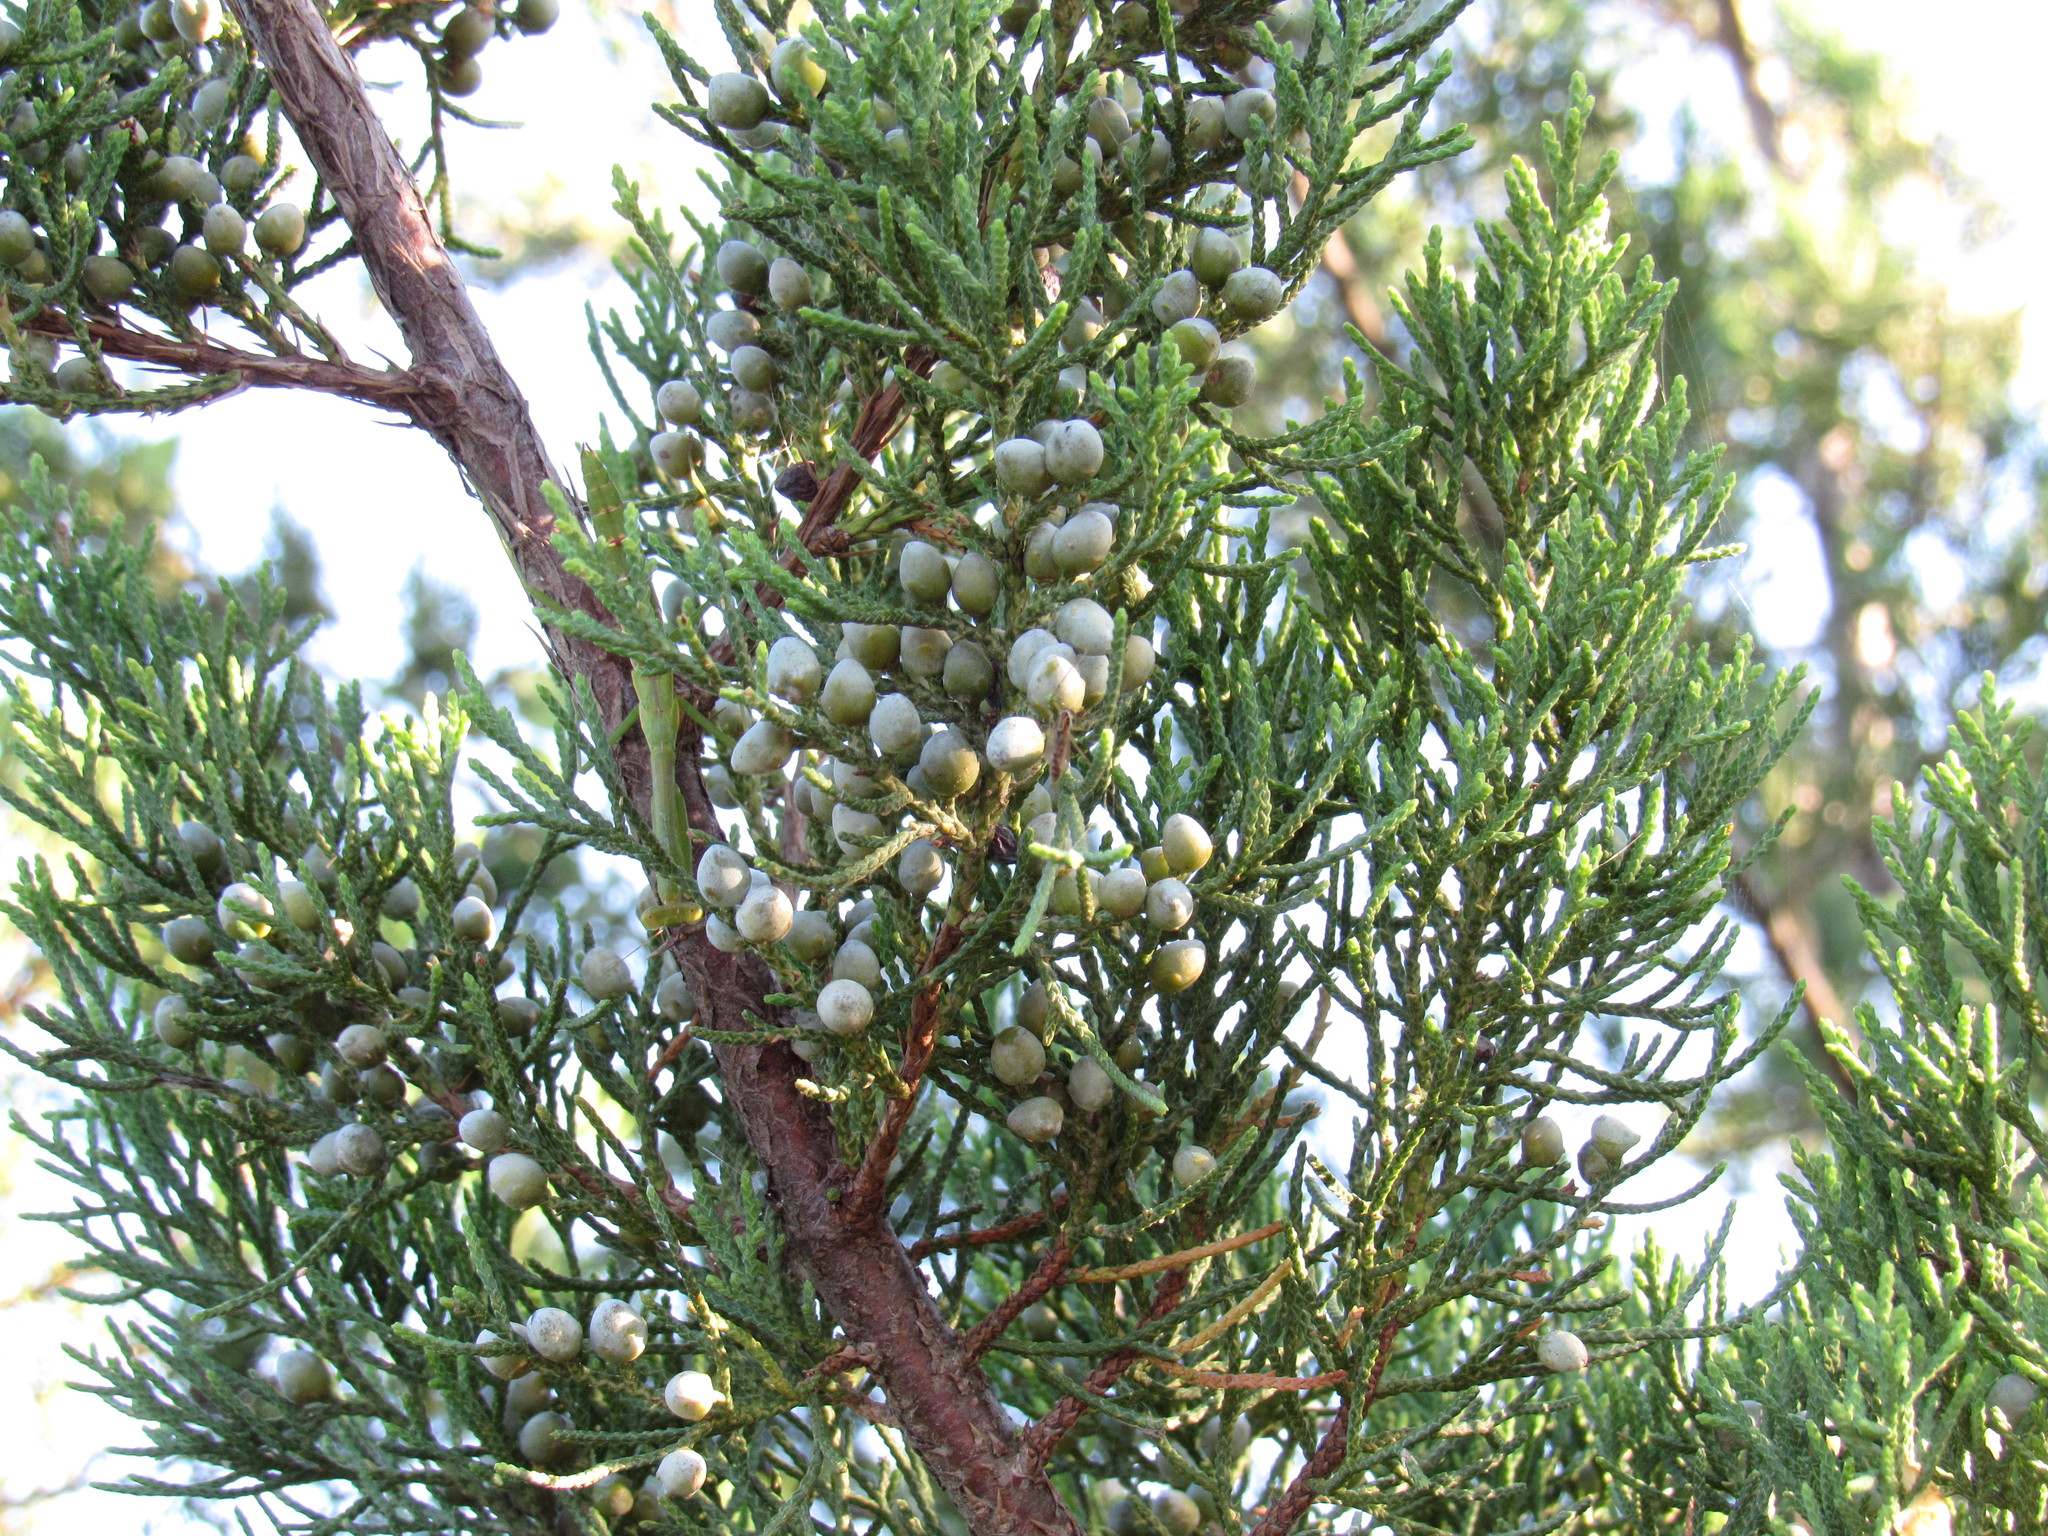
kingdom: Plantae
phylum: Tracheophyta
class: Pinopsida
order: Pinales
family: Cupressaceae
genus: Juniperus
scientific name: Juniperus virginiana
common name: Red juniper
